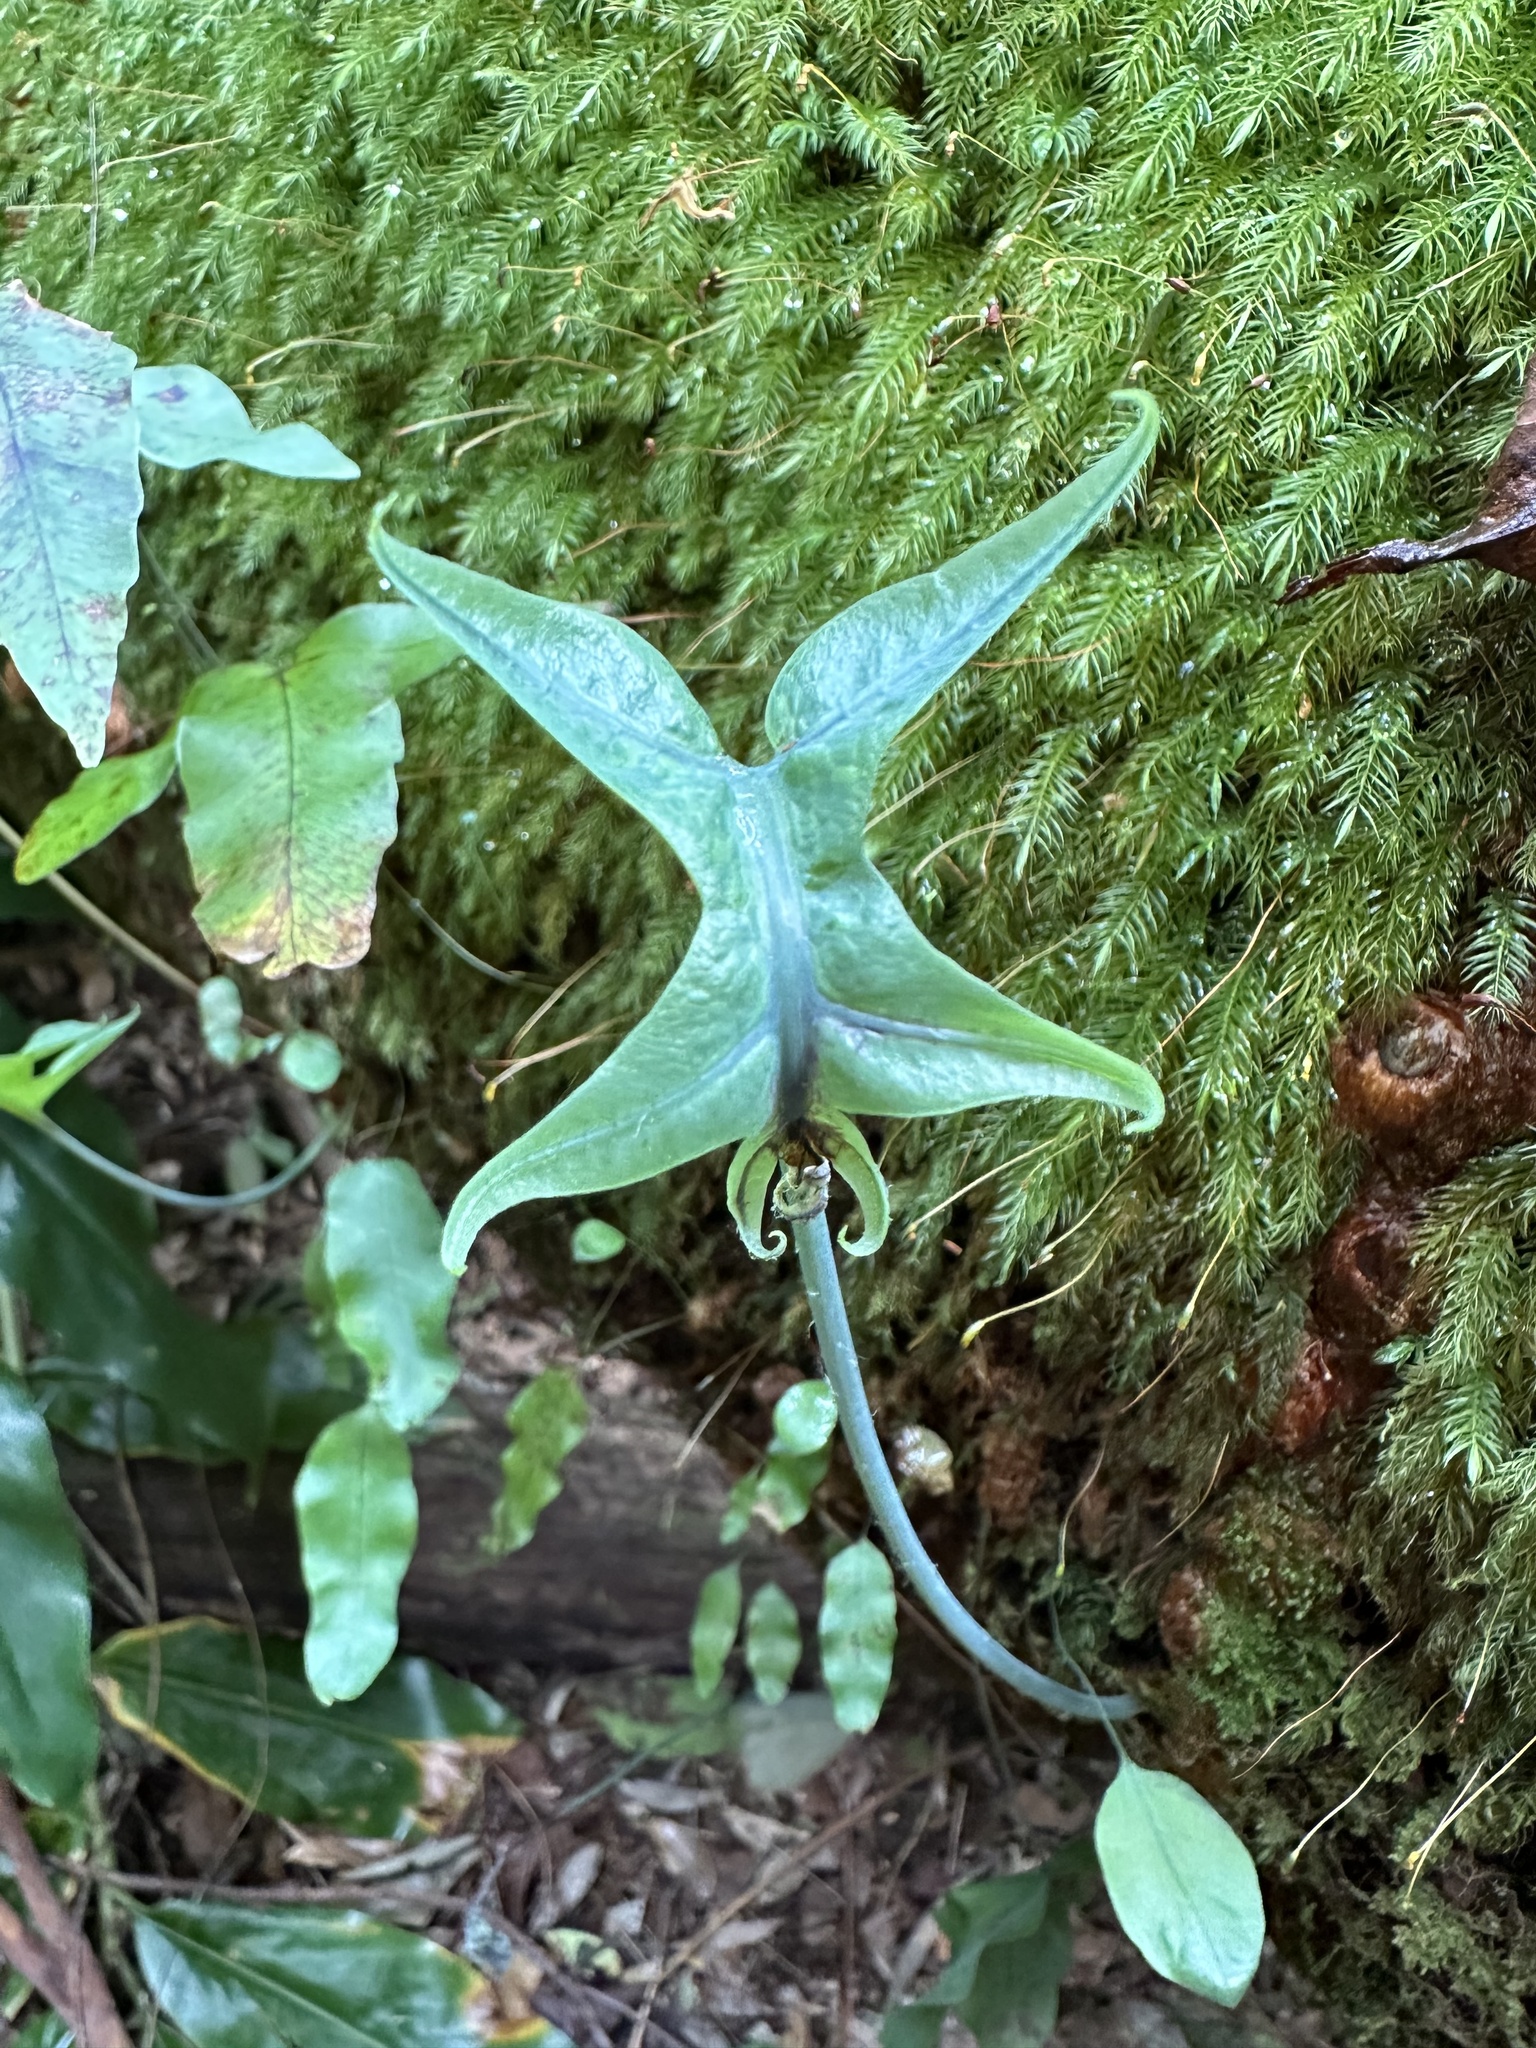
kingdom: Plantae
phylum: Tracheophyta
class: Polypodiopsida
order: Polypodiales
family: Polypodiaceae
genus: Phlebodium
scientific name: Phlebodium aureum
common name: Gold-foot fern
